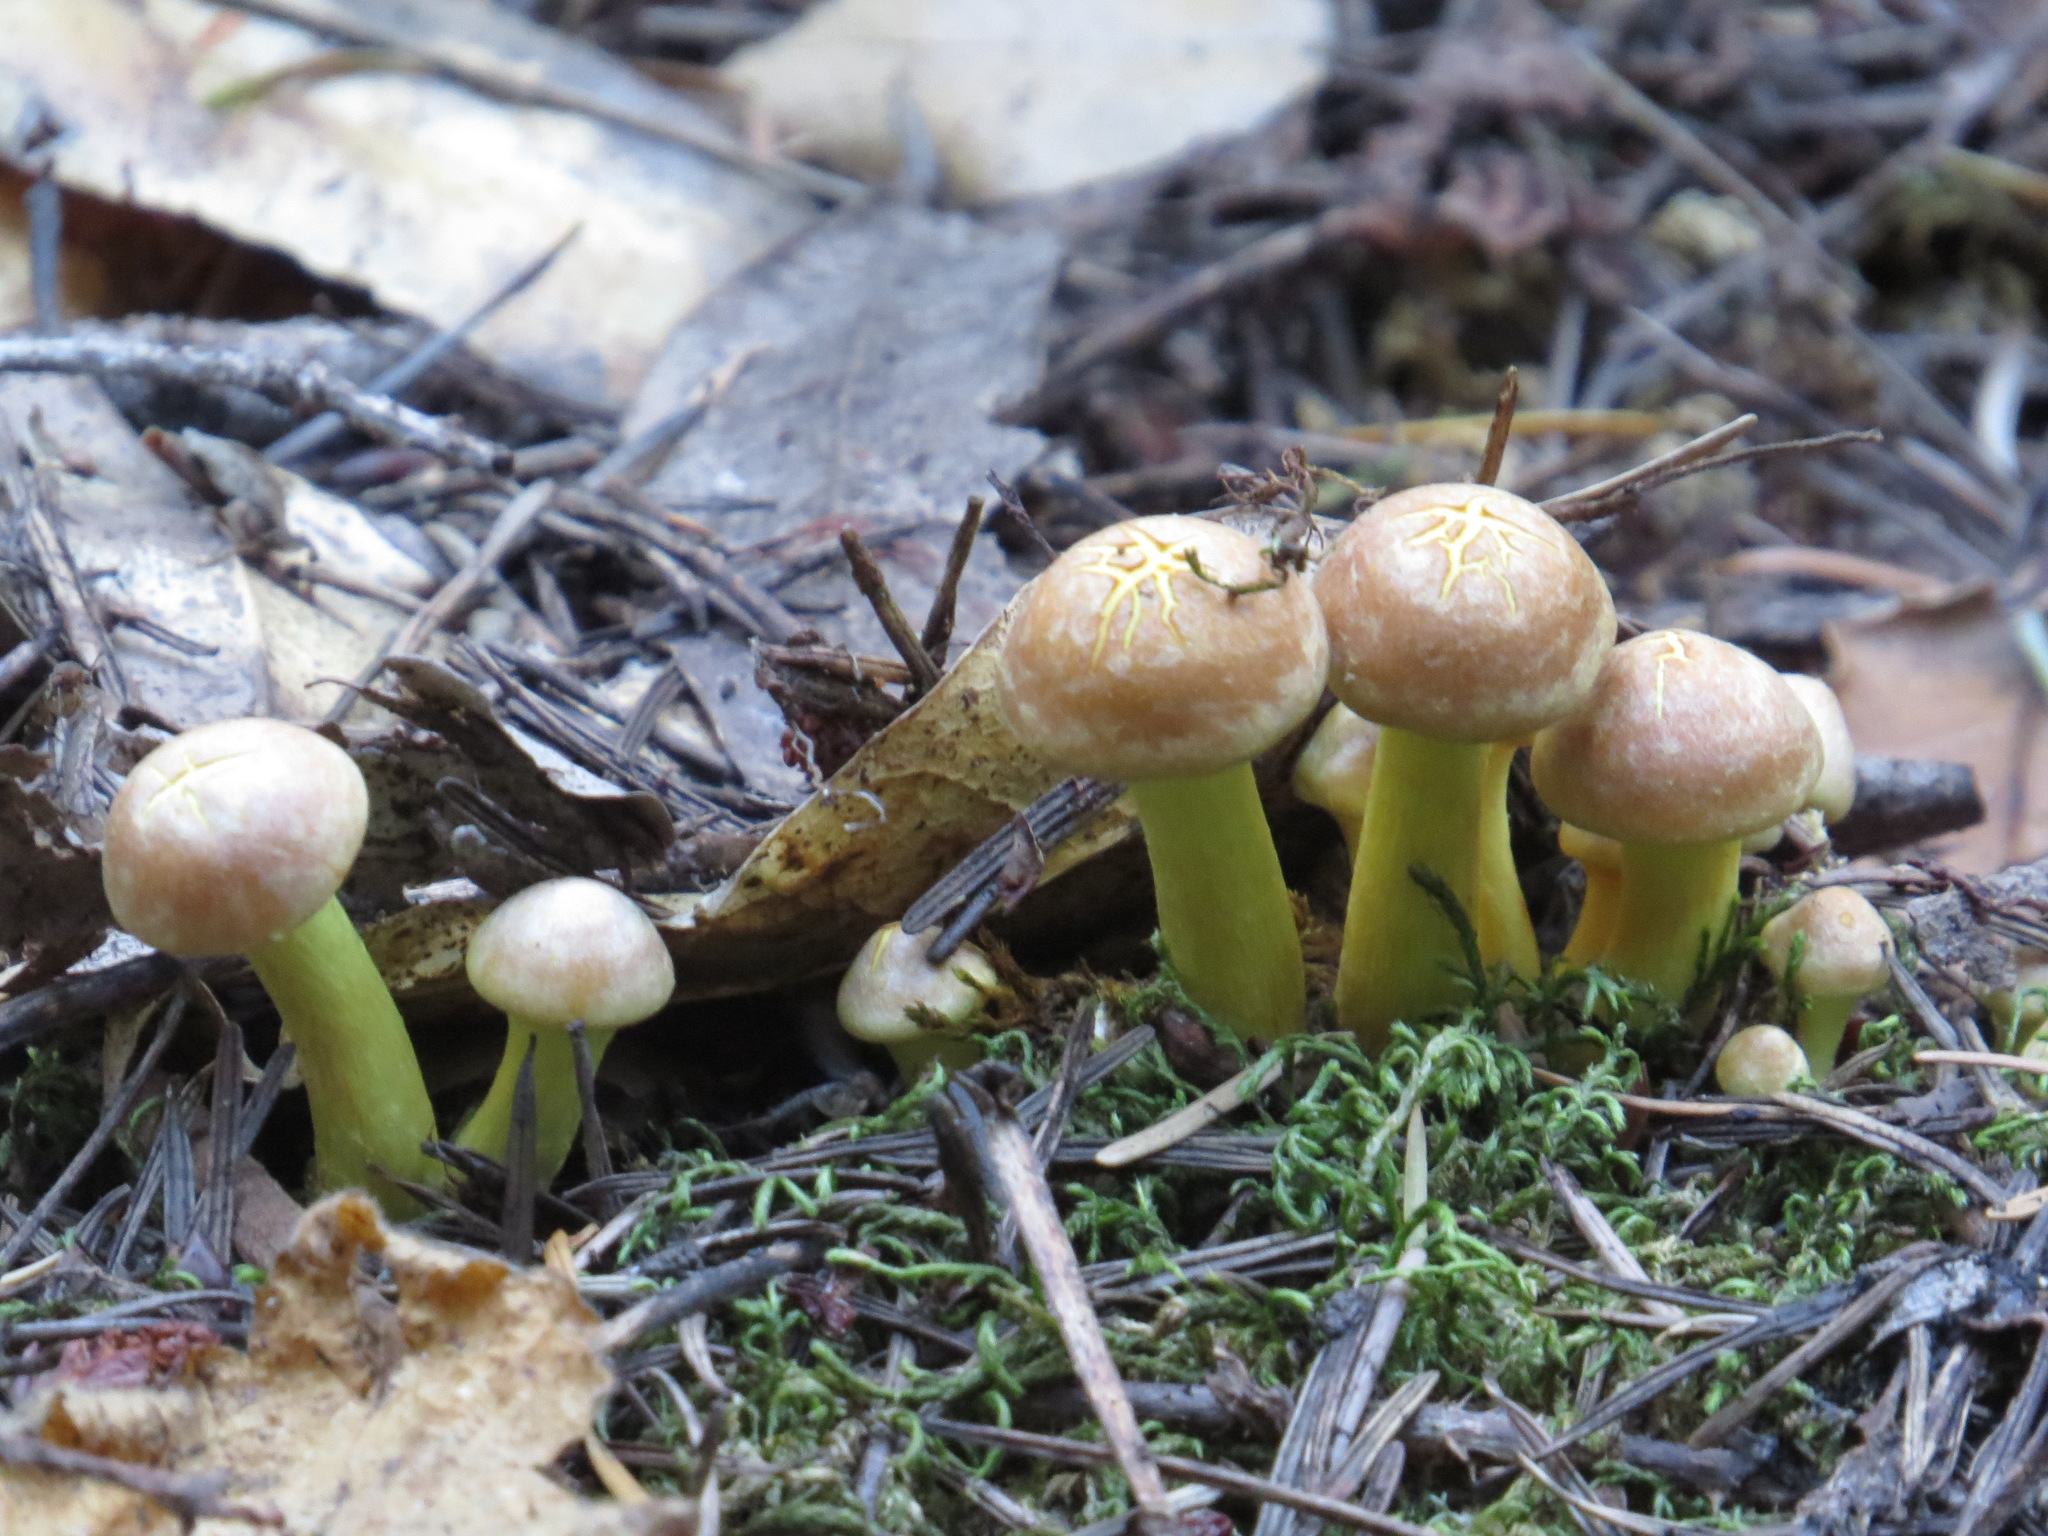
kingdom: Fungi
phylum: Basidiomycota
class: Agaricomycetes
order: Agaricales
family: Strophariaceae
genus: Hypholoma
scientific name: Hypholoma fasciculare
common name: Sulphur tuft
